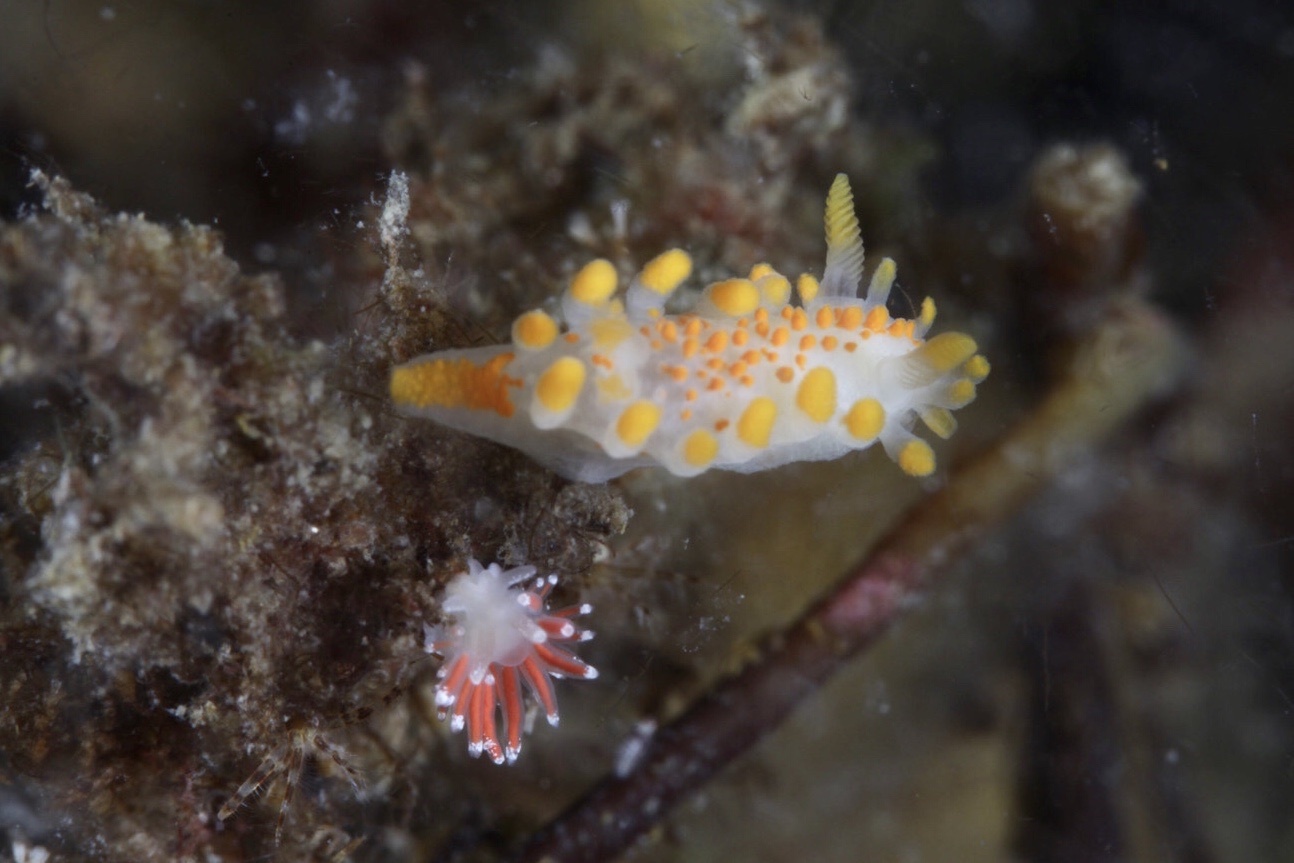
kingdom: Animalia
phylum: Mollusca
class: Gastropoda
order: Nudibranchia
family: Polyceridae
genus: Limacia
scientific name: Limacia clavigera
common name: Orange-clubbed sea slug
